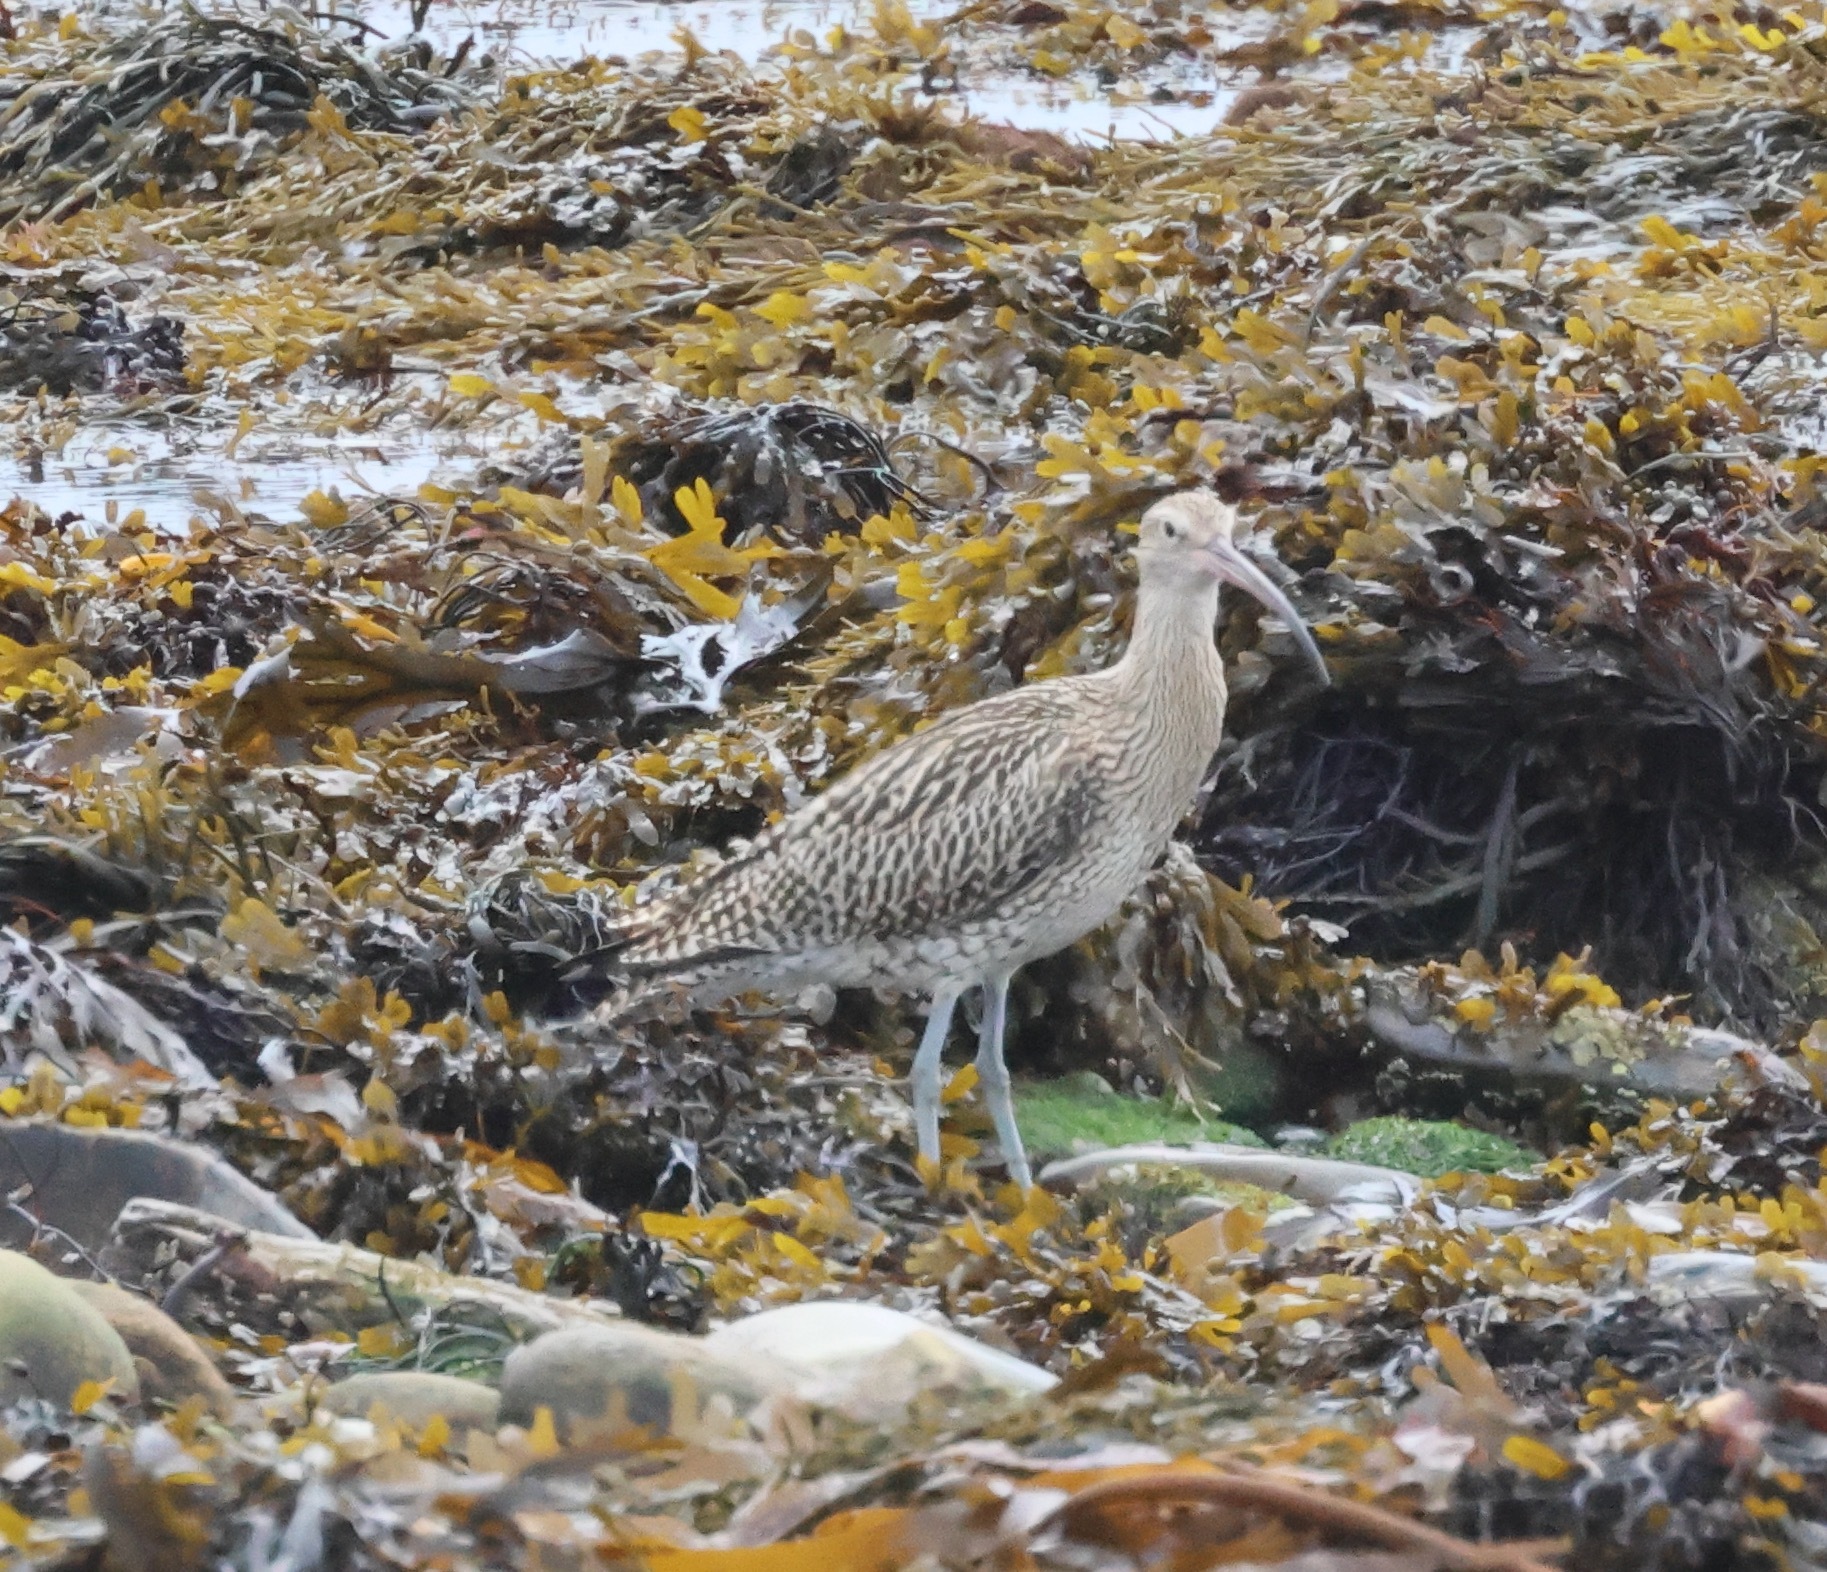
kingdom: Animalia
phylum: Chordata
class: Aves
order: Charadriiformes
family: Scolopacidae
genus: Numenius
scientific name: Numenius arquata
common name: Eurasian curlew
